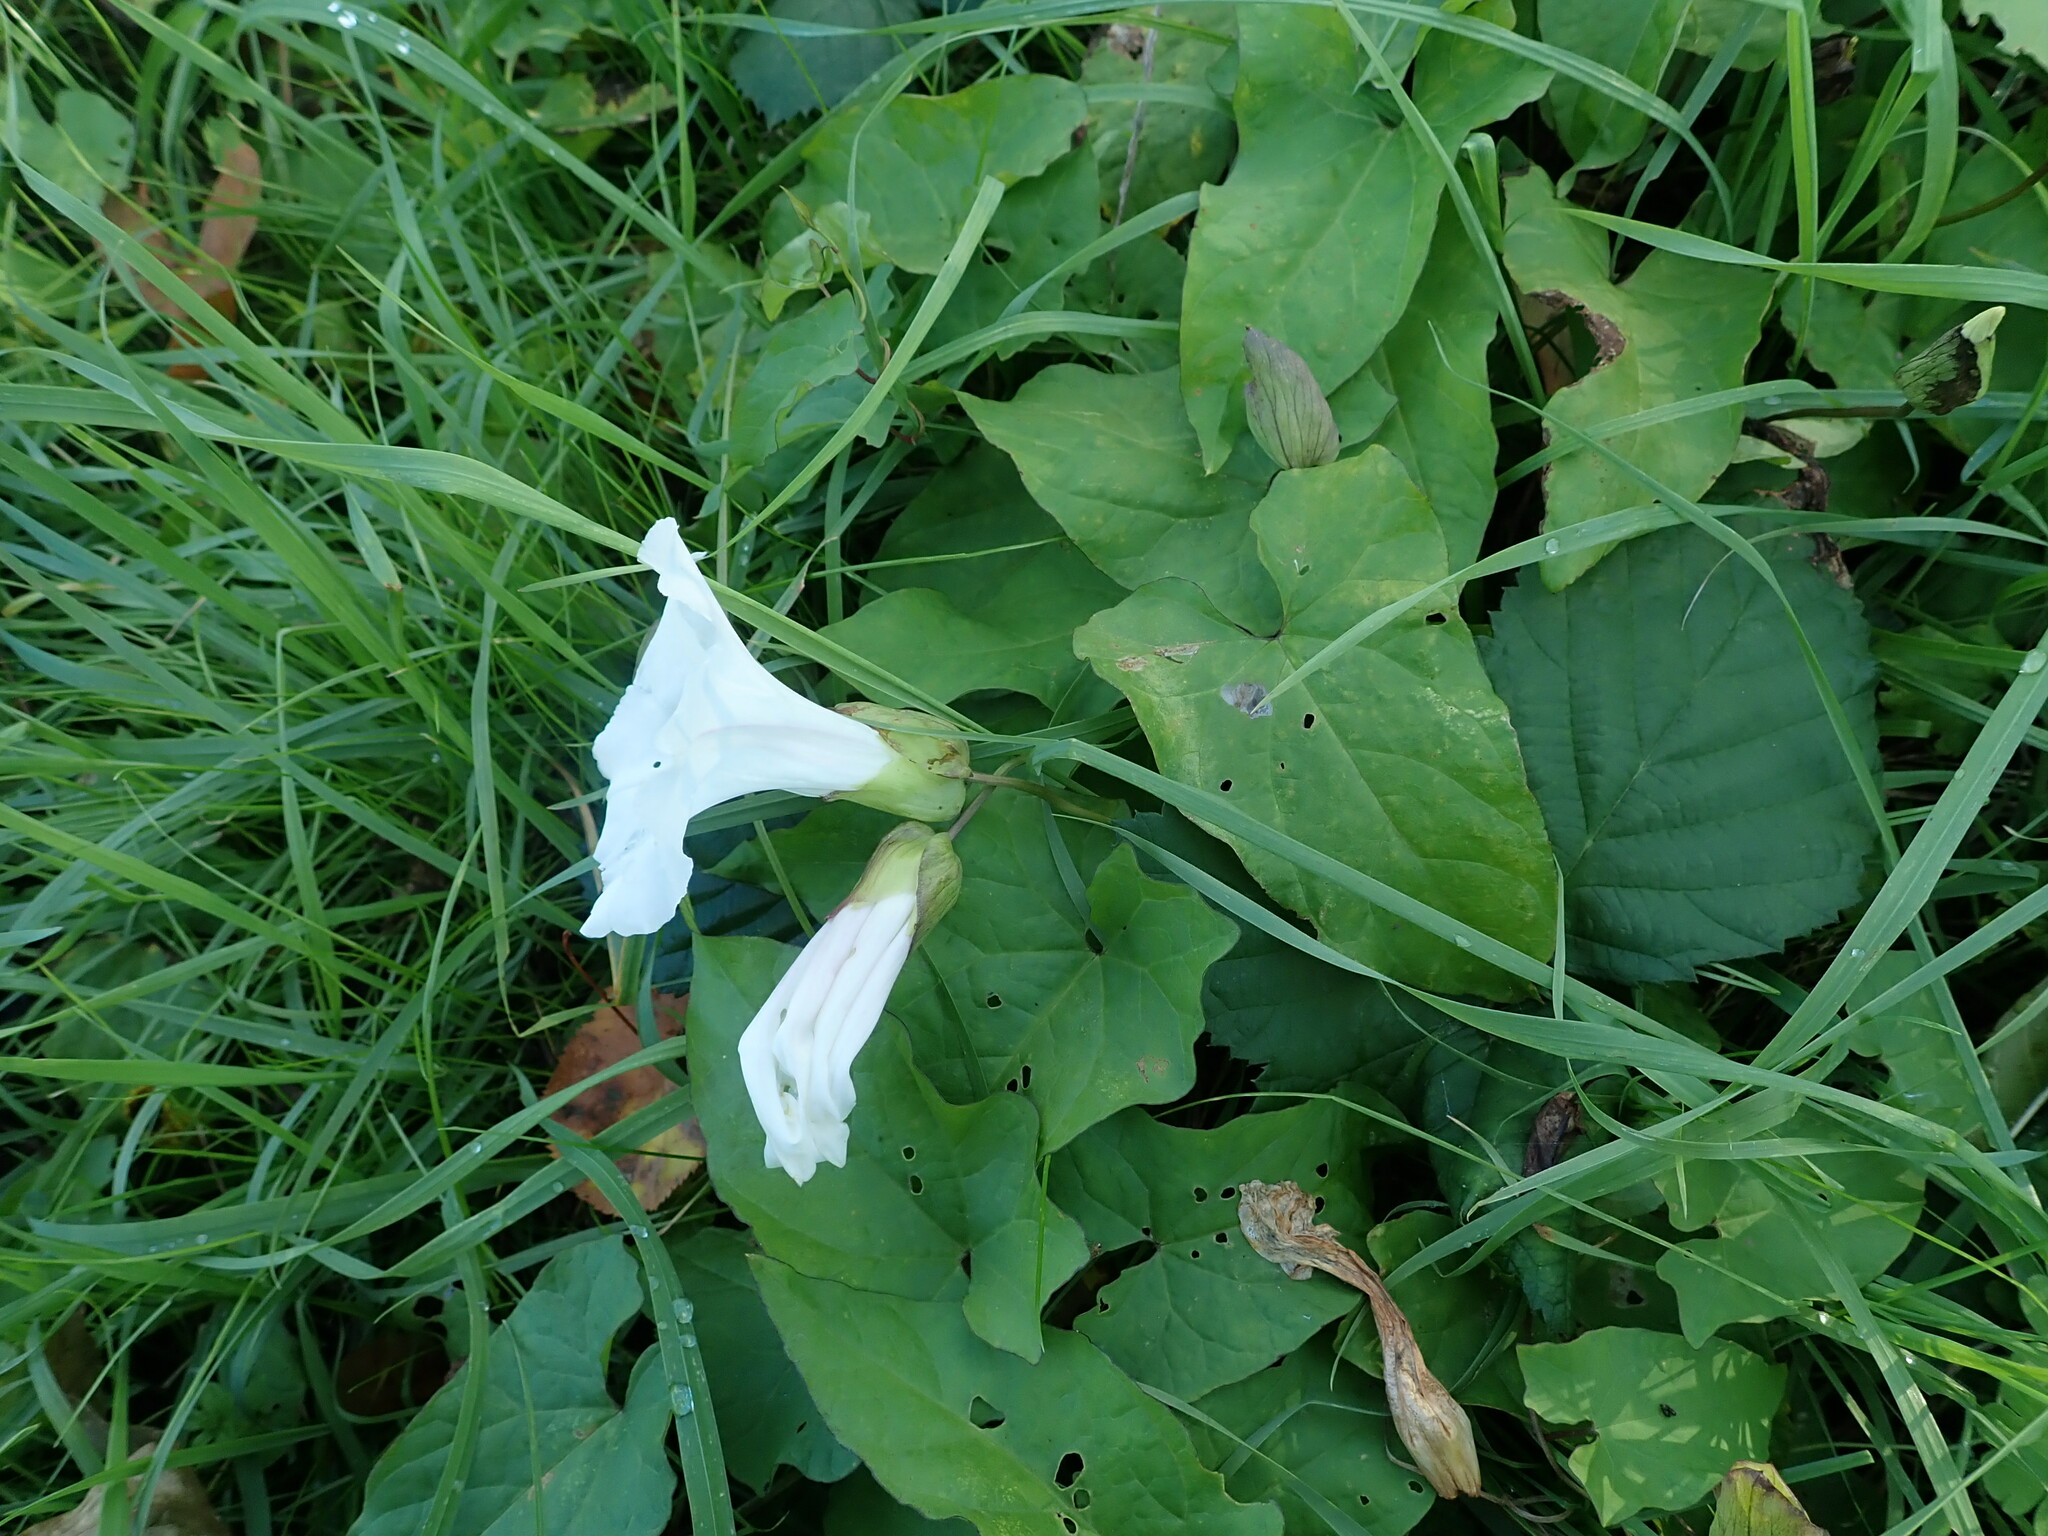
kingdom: Plantae
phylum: Tracheophyta
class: Magnoliopsida
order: Solanales
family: Convolvulaceae
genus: Calystegia
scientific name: Calystegia silvatica
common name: Large bindweed
